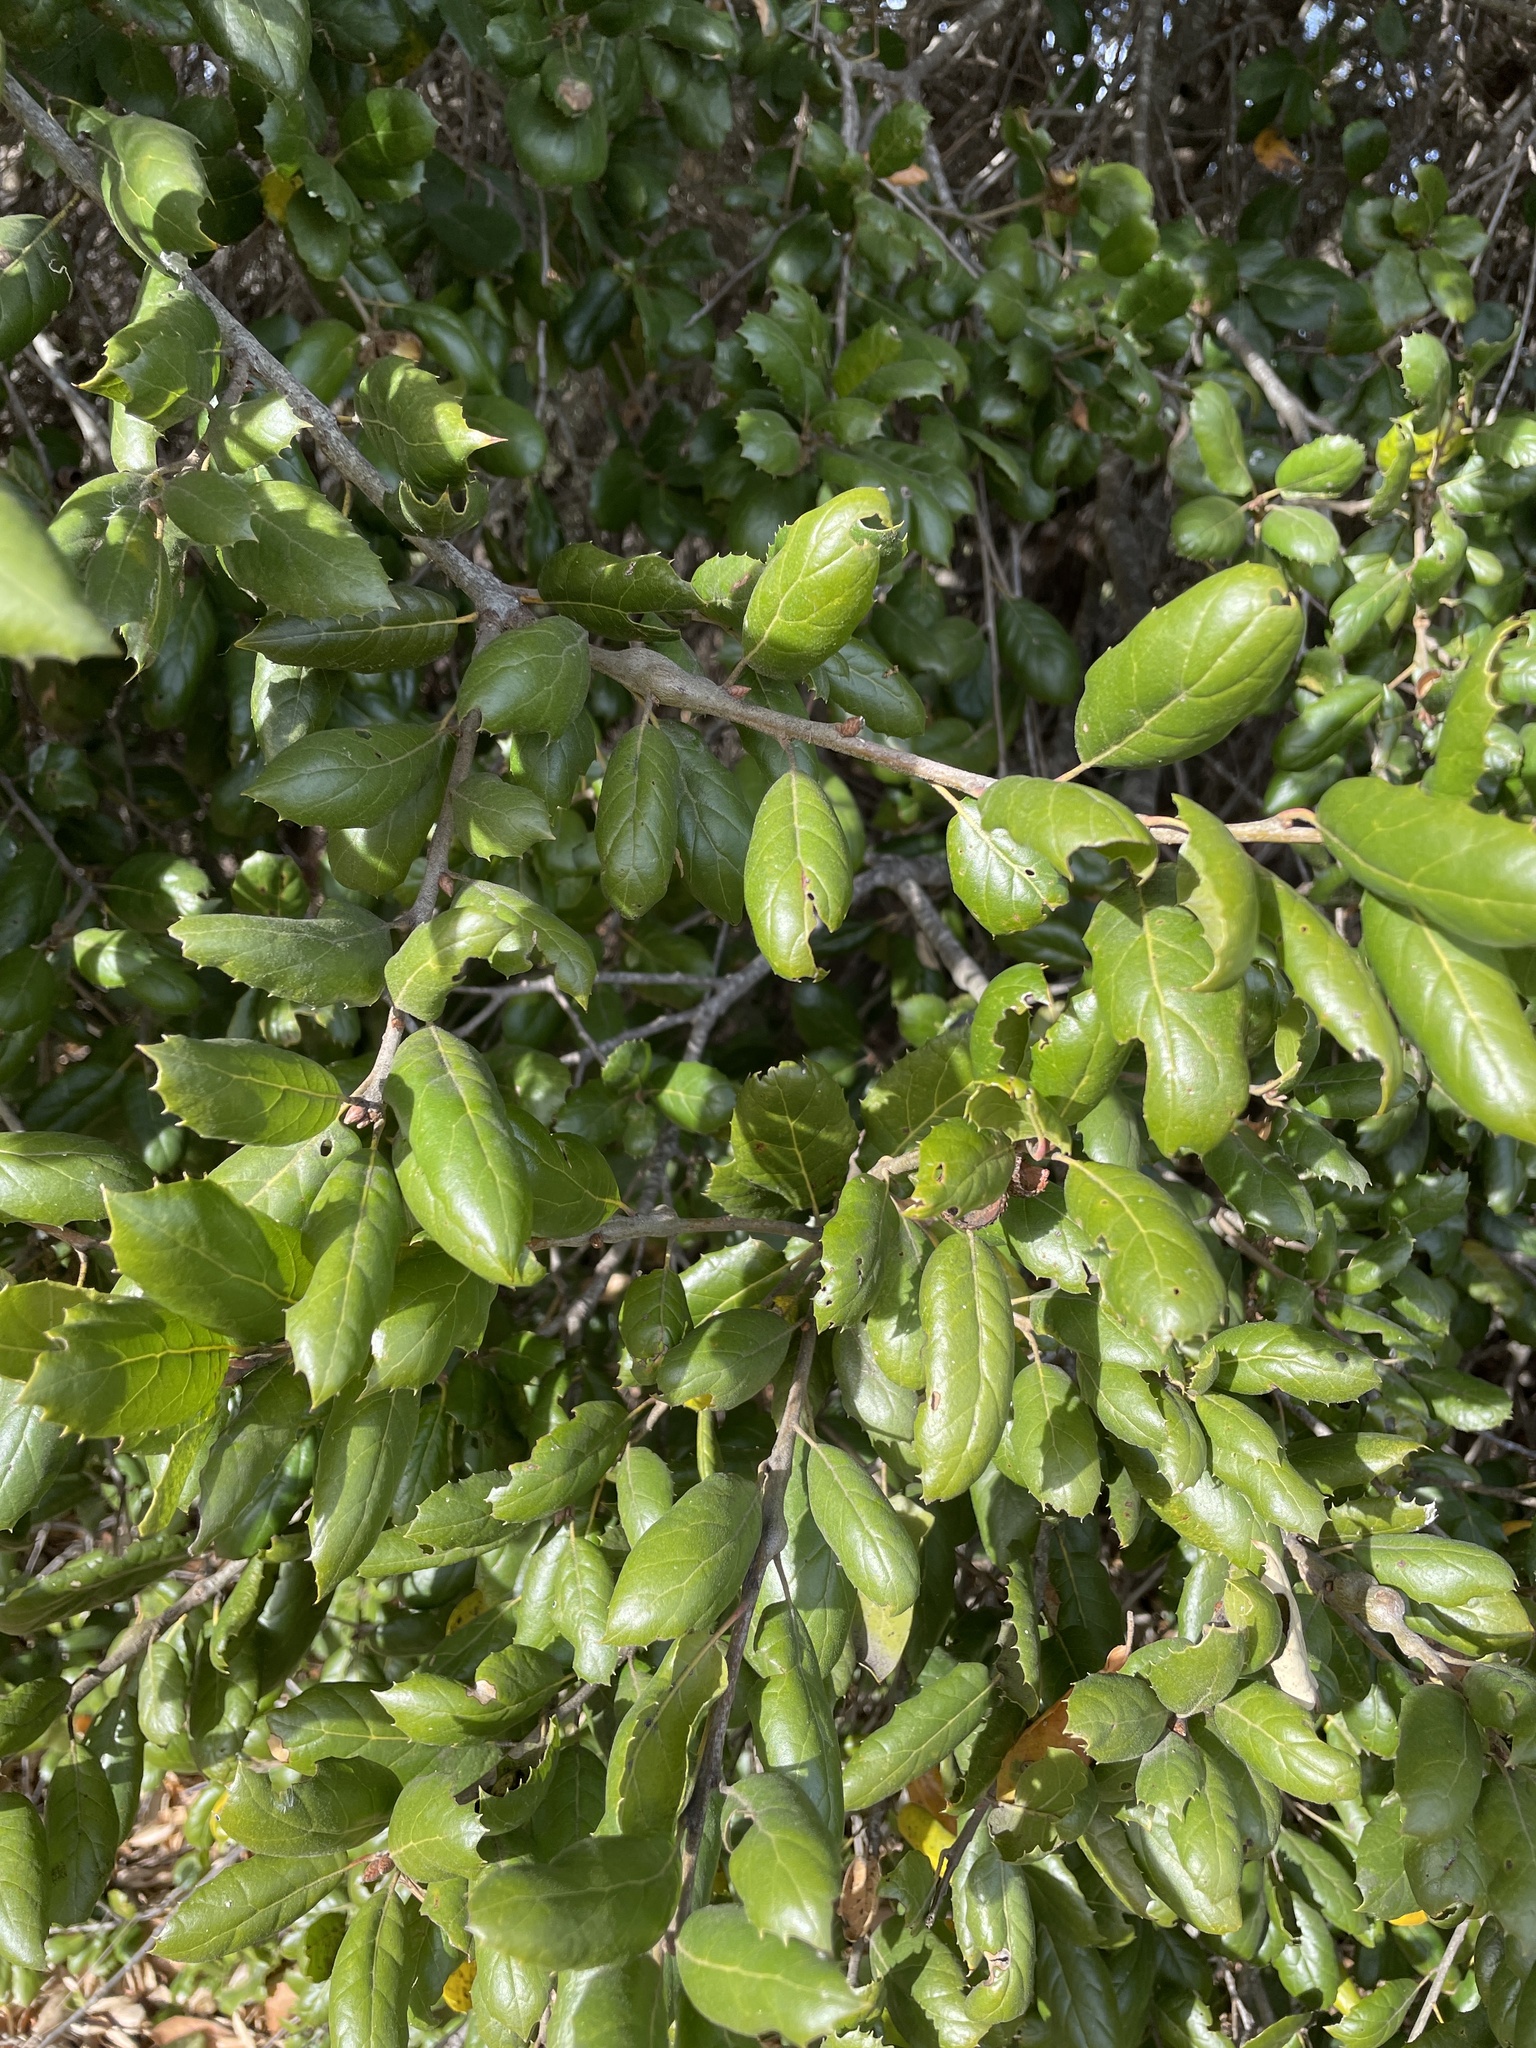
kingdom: Plantae
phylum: Tracheophyta
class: Magnoliopsida
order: Fagales
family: Fagaceae
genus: Quercus
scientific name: Quercus agrifolia
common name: California live oak
